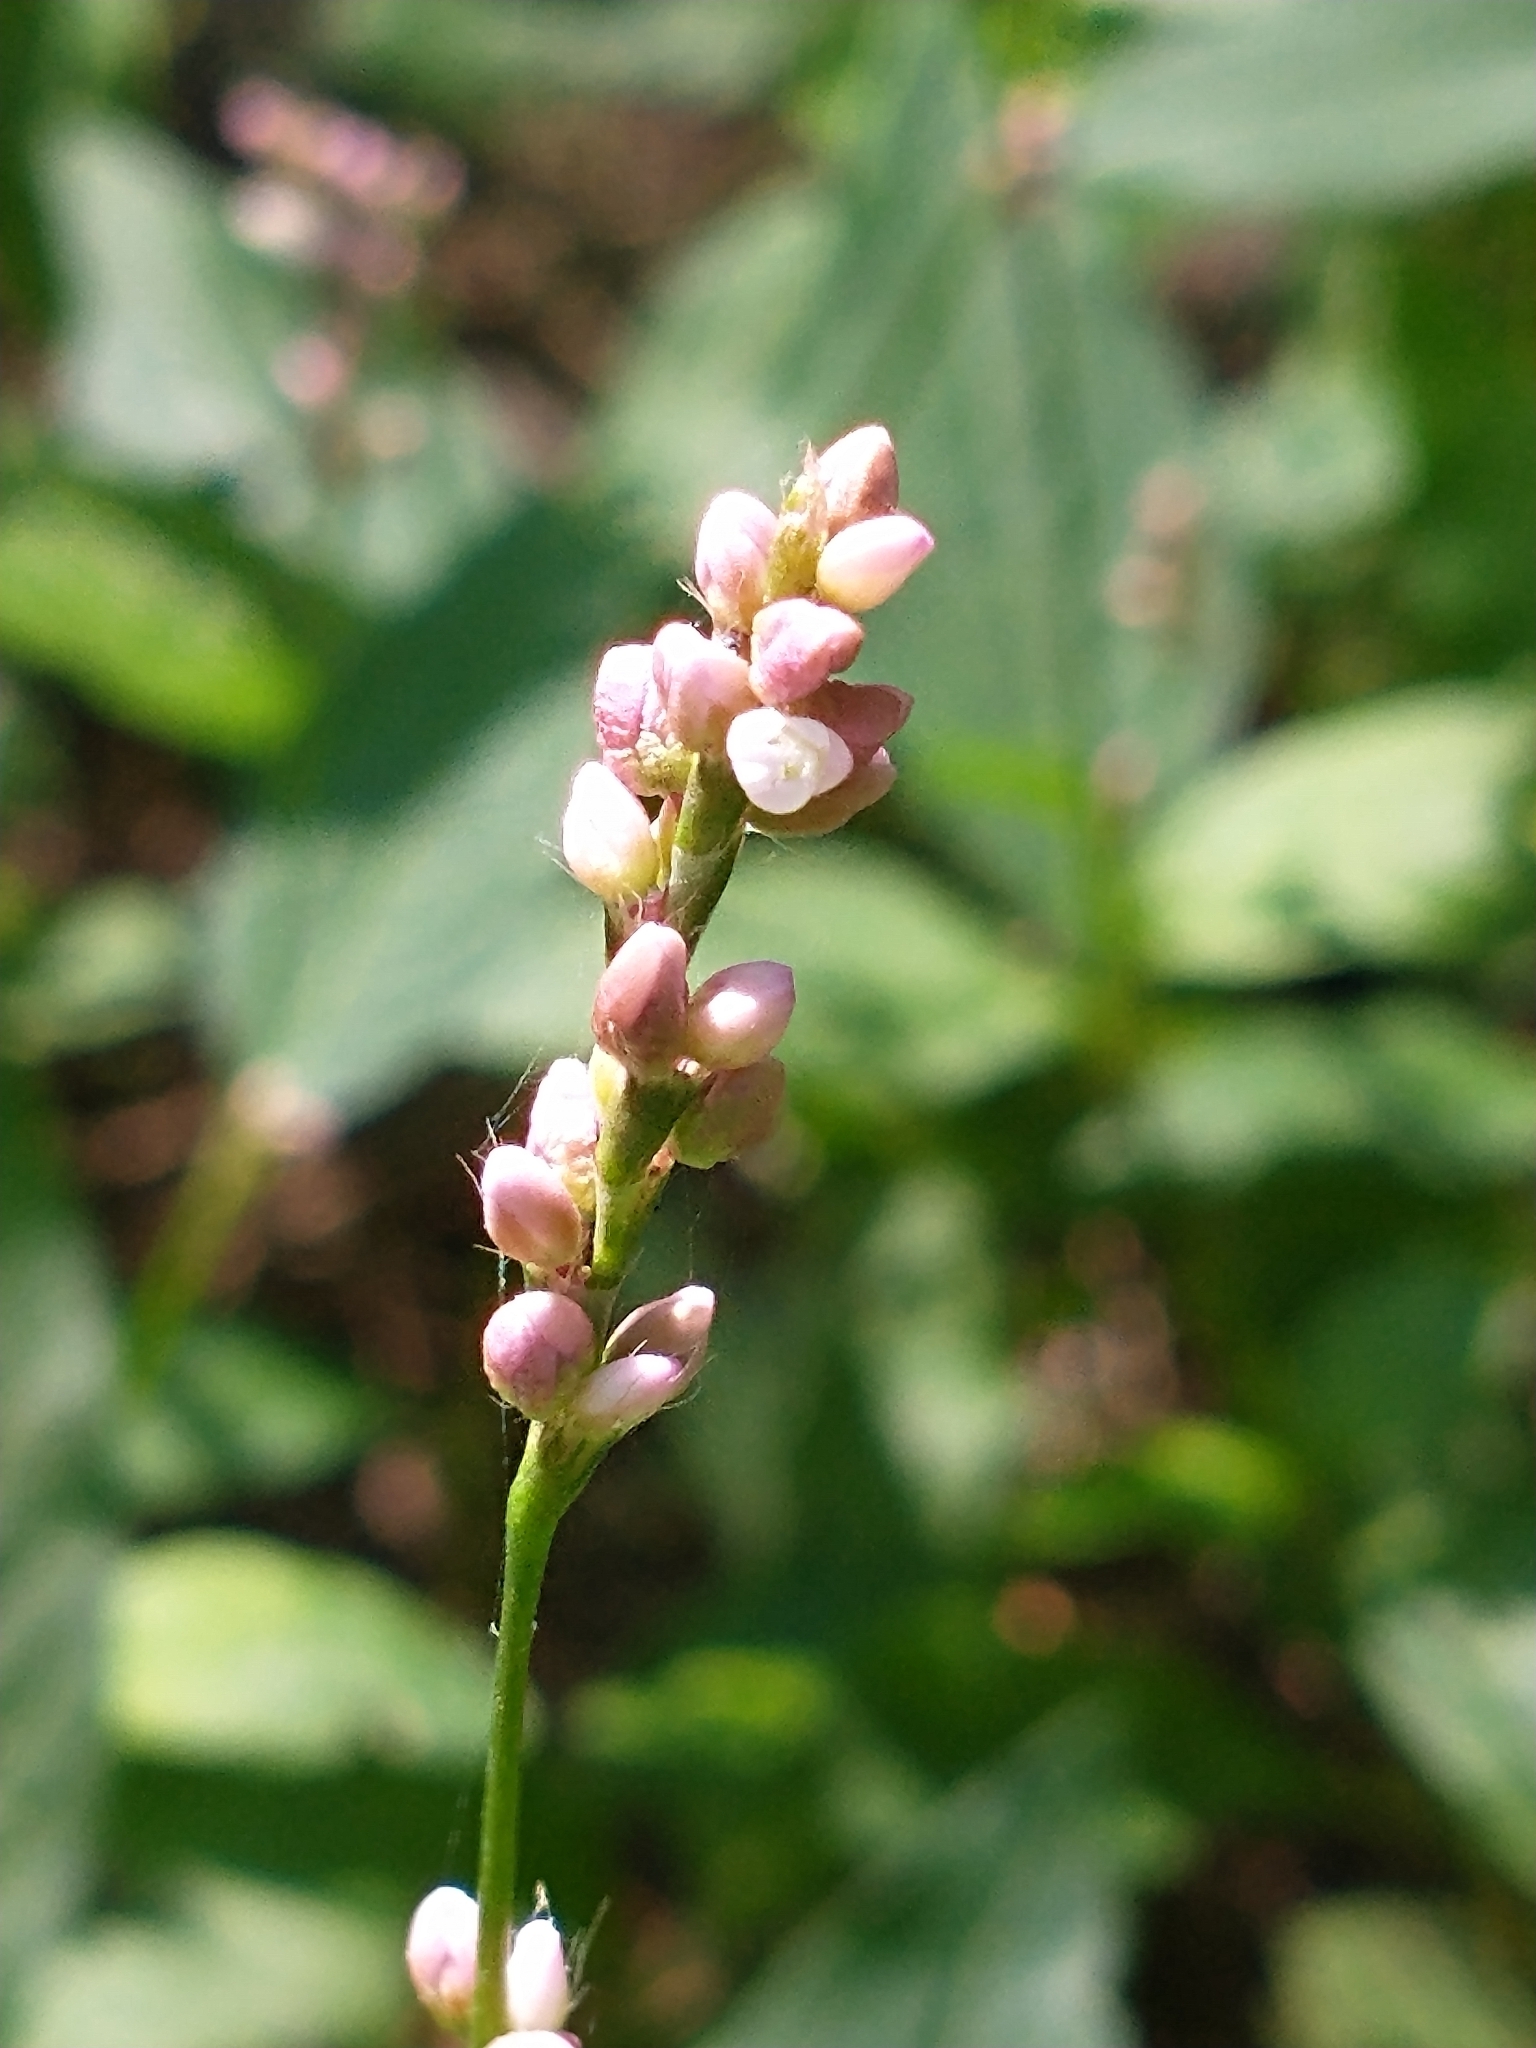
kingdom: Plantae
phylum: Tracheophyta
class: Magnoliopsida
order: Caryophyllales
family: Polygonaceae
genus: Persicaria
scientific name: Persicaria longiseta
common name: Bristly lady's-thumb
